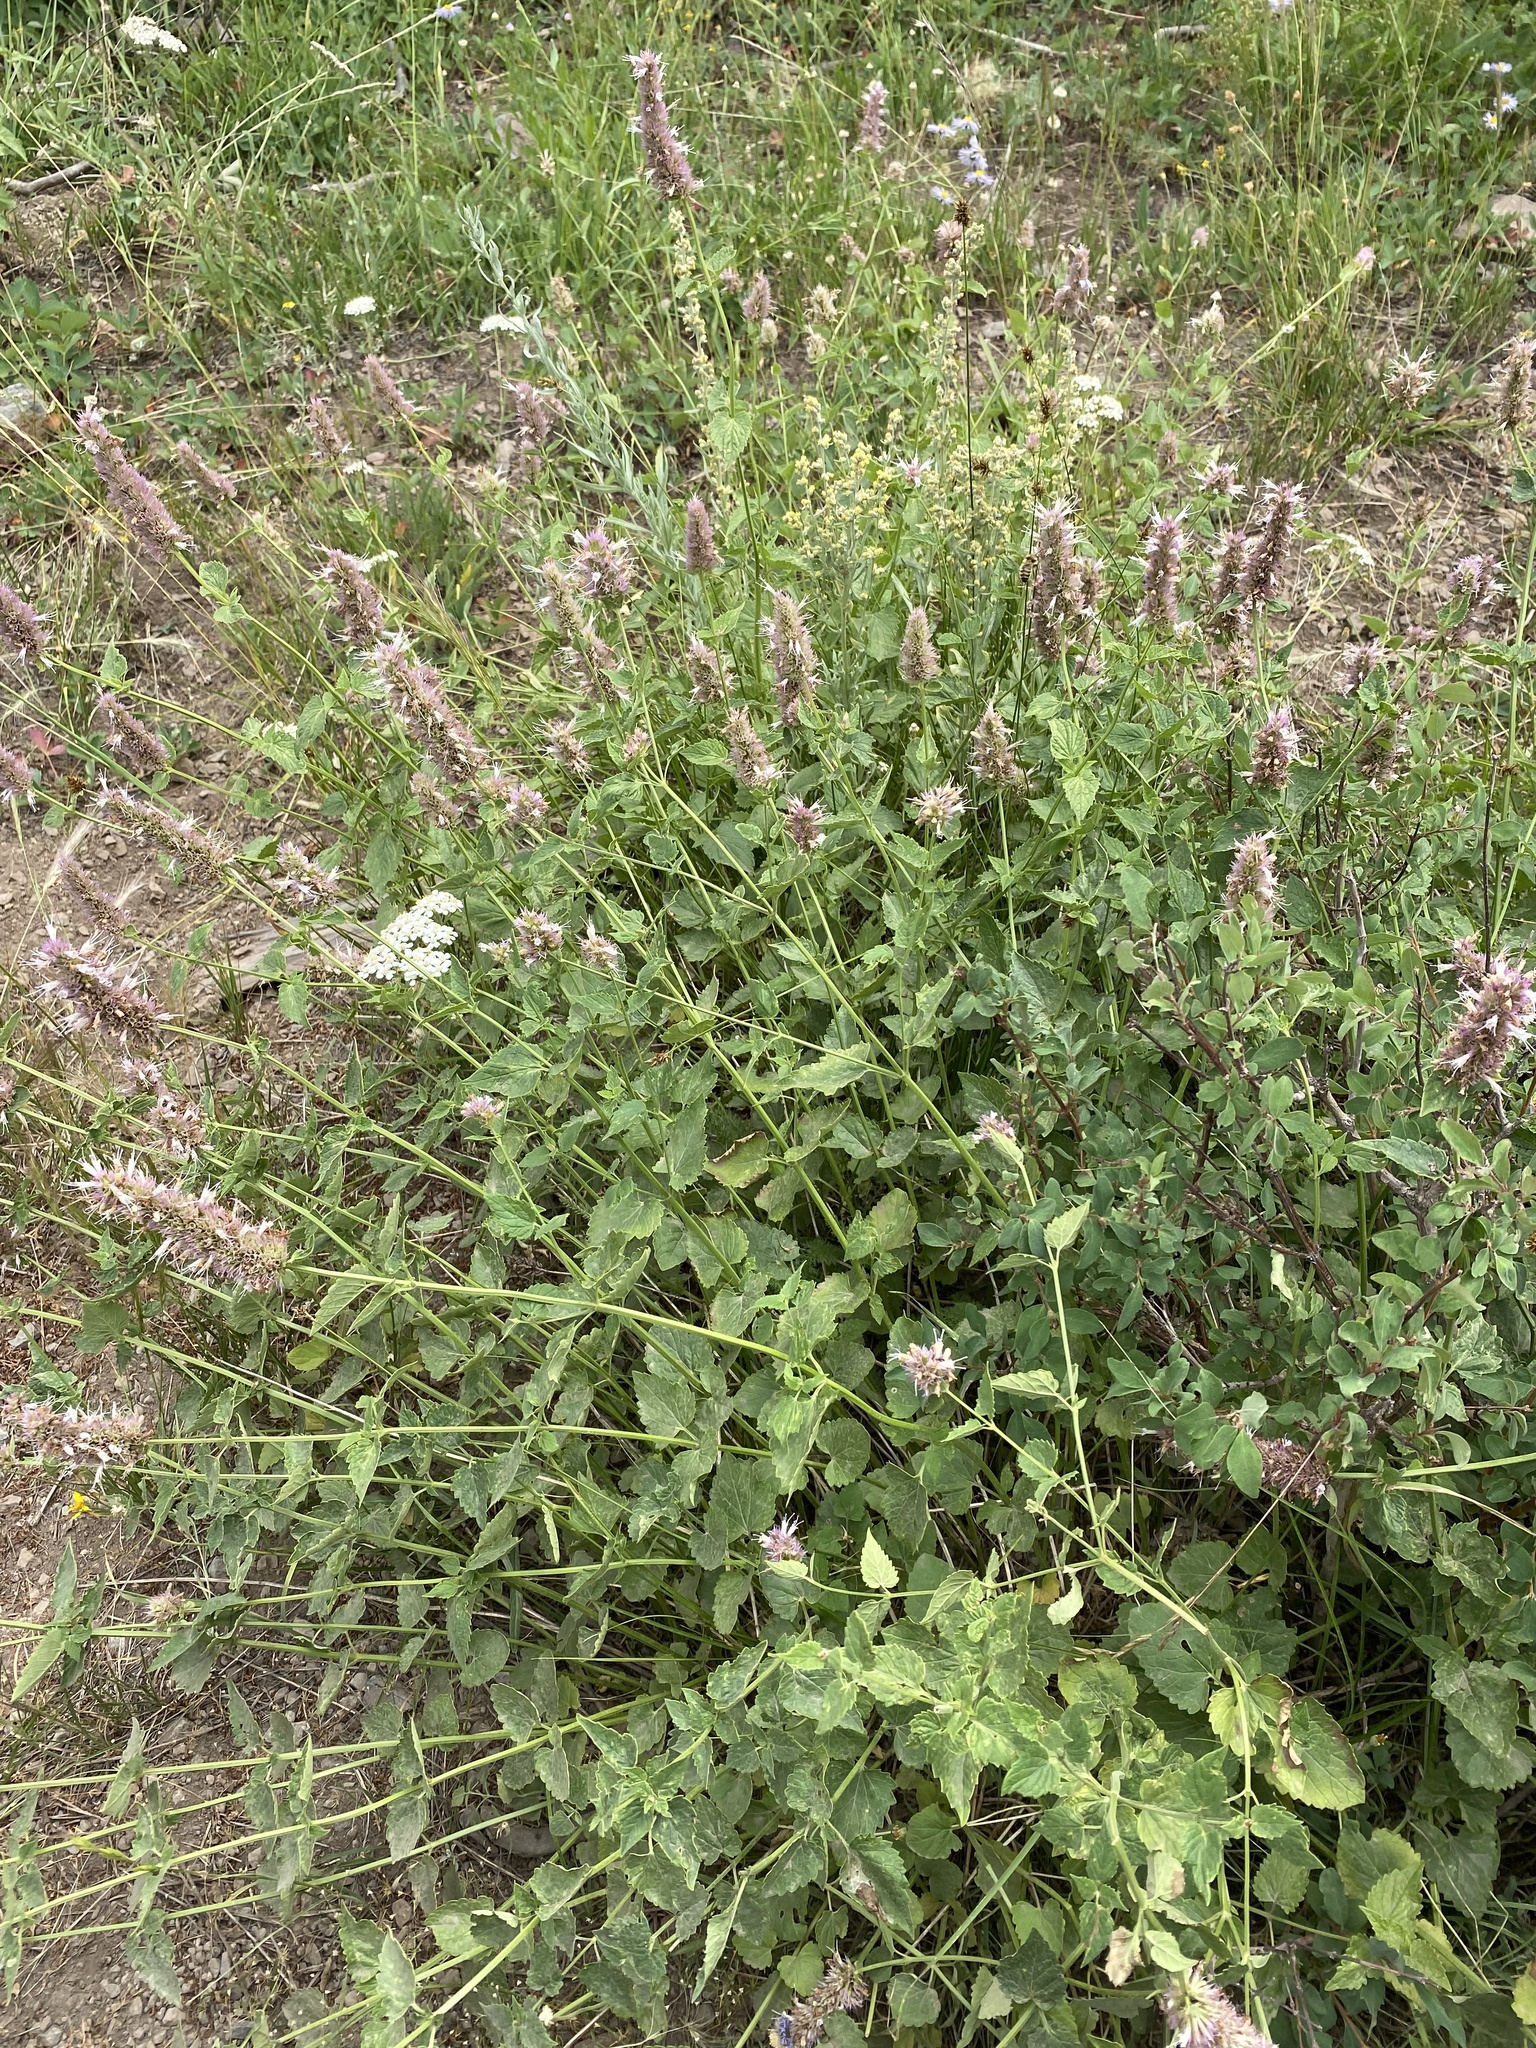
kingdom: Plantae
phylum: Tracheophyta
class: Magnoliopsida
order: Lamiales
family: Lamiaceae
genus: Agastache
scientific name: Agastache urticifolia
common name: Horsemint giant hyssop
